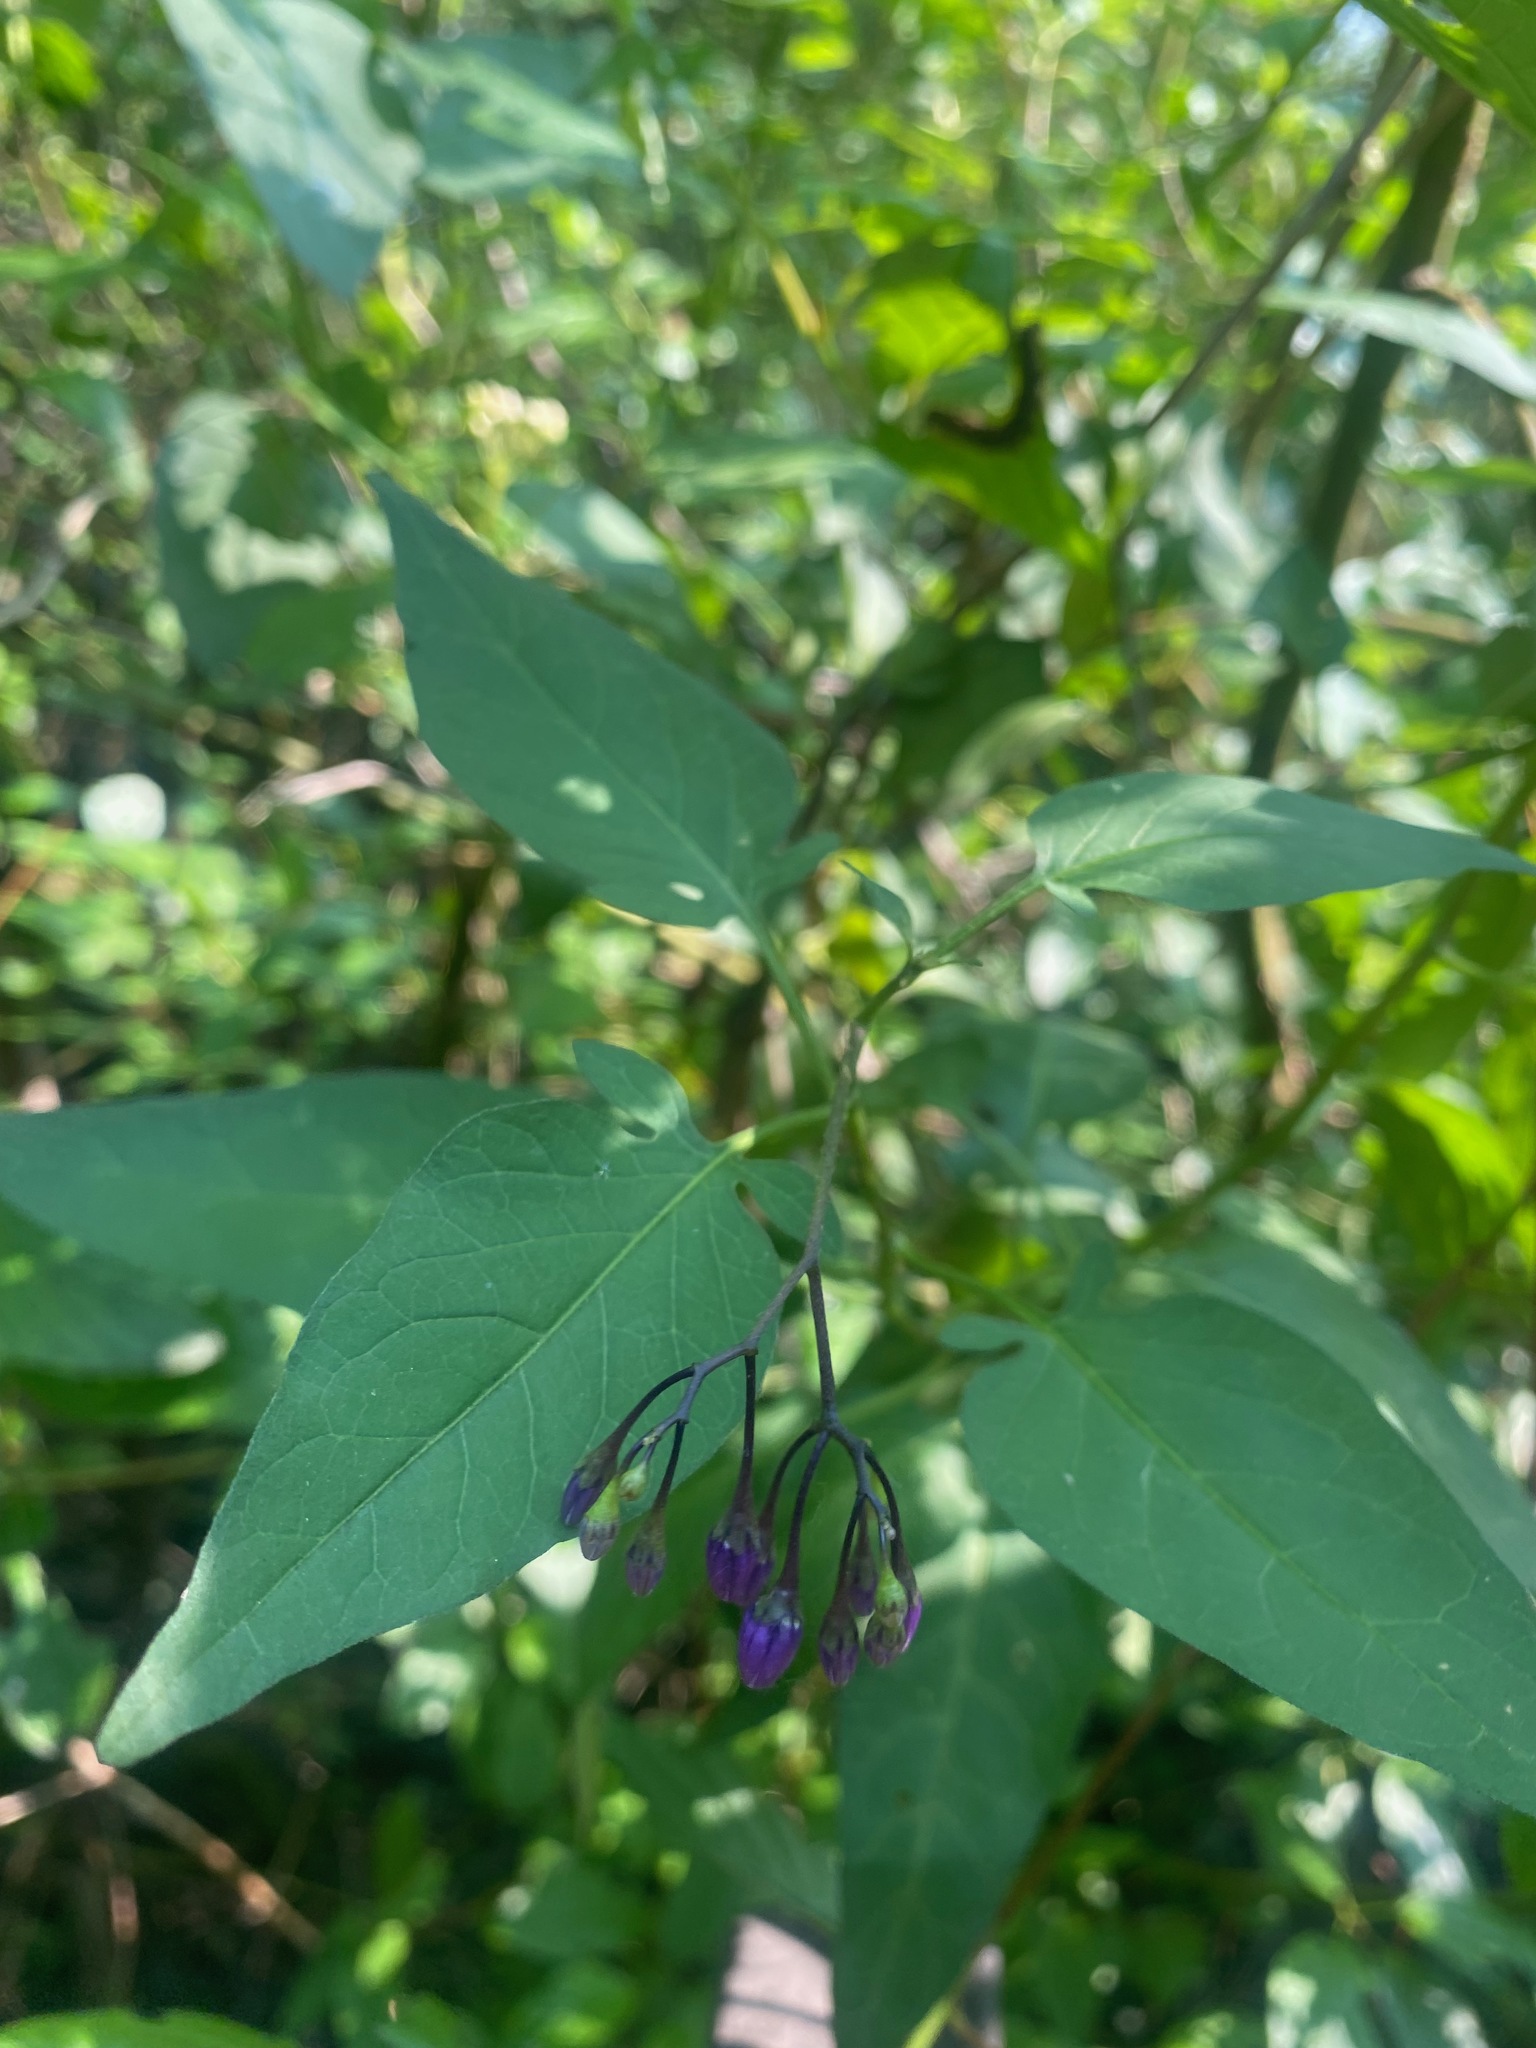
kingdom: Plantae
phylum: Tracheophyta
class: Magnoliopsida
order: Solanales
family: Solanaceae
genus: Solanum
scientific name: Solanum dulcamara
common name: Climbing nightshade
